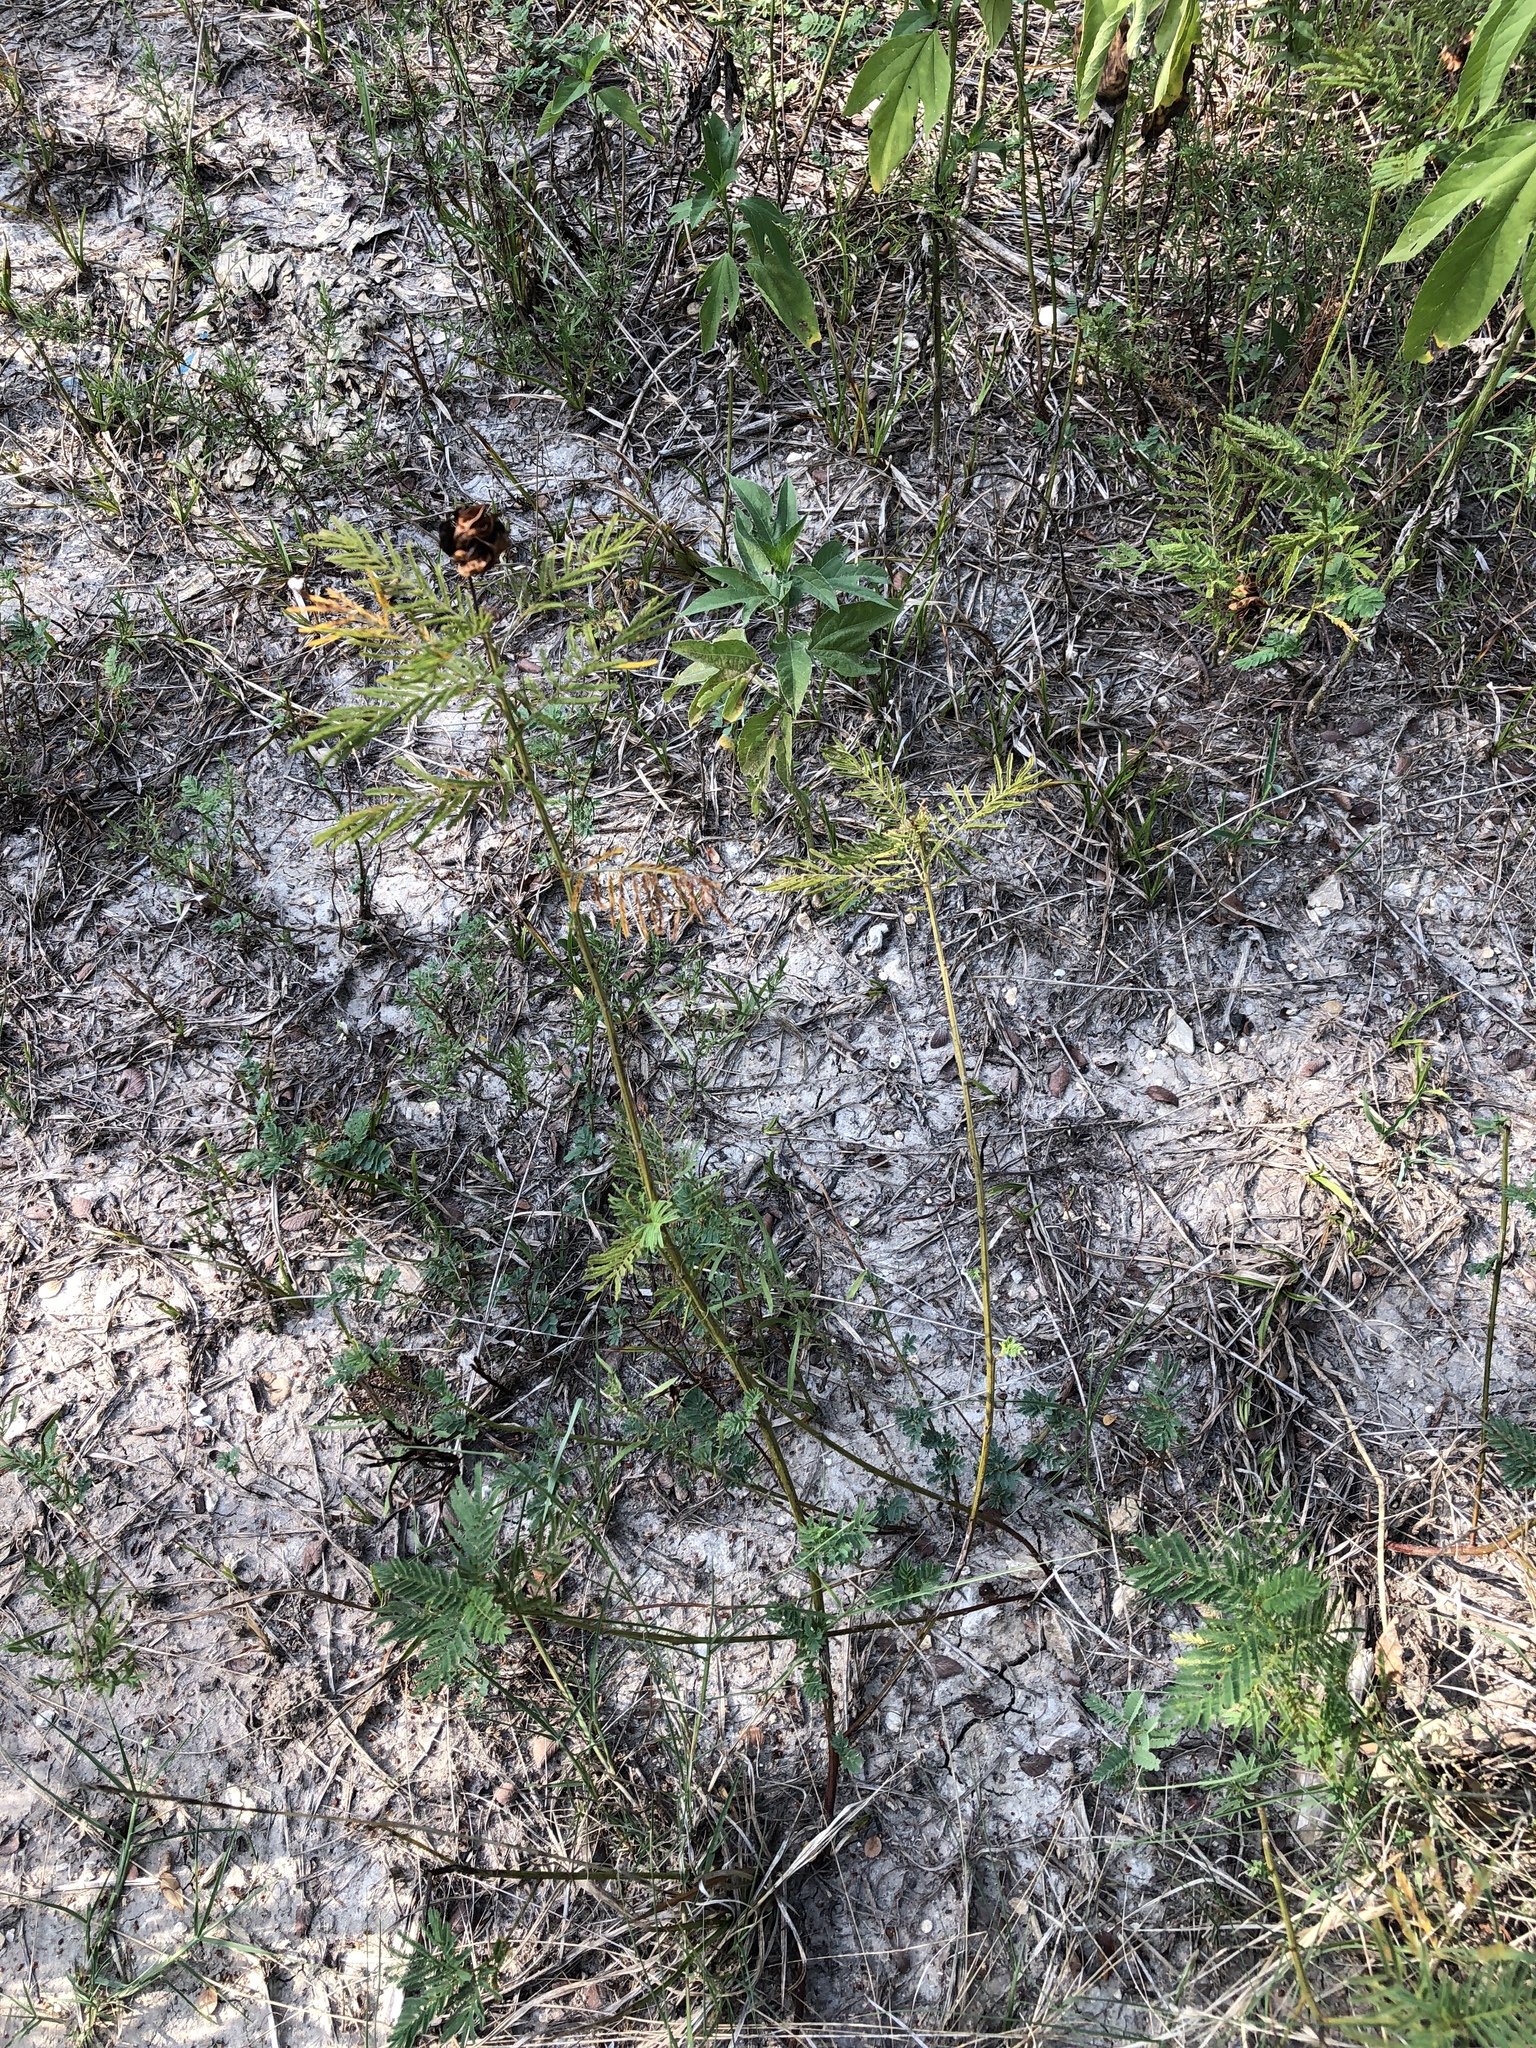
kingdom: Plantae
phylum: Tracheophyta
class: Magnoliopsida
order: Fabales
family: Fabaceae
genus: Desmanthus
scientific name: Desmanthus illinoensis
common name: Illinois bundle-flower
